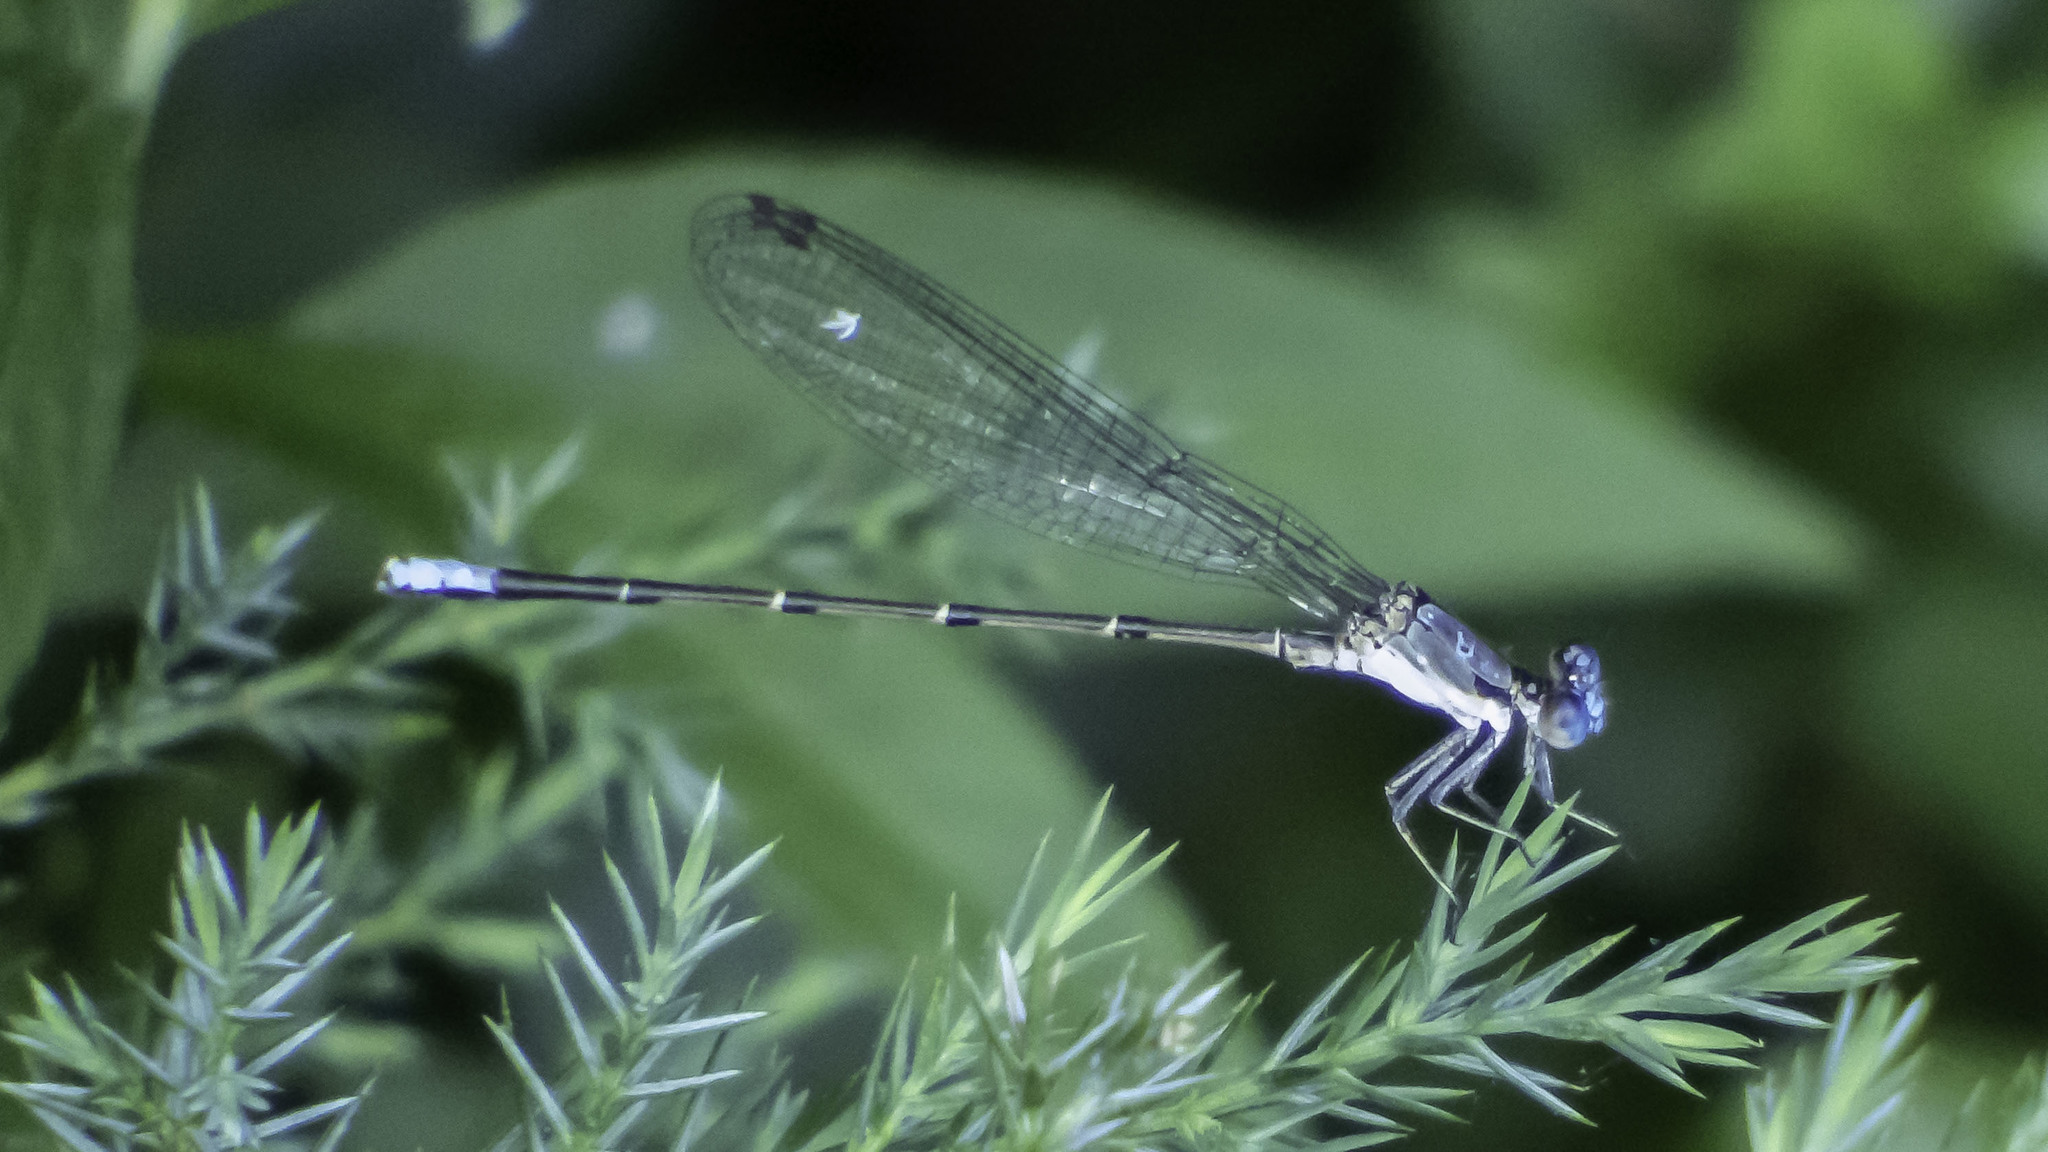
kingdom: Animalia
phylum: Arthropoda
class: Insecta
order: Odonata
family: Coenagrionidae
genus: Argia
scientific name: Argia apicalis
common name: Blue-fronted dancer
